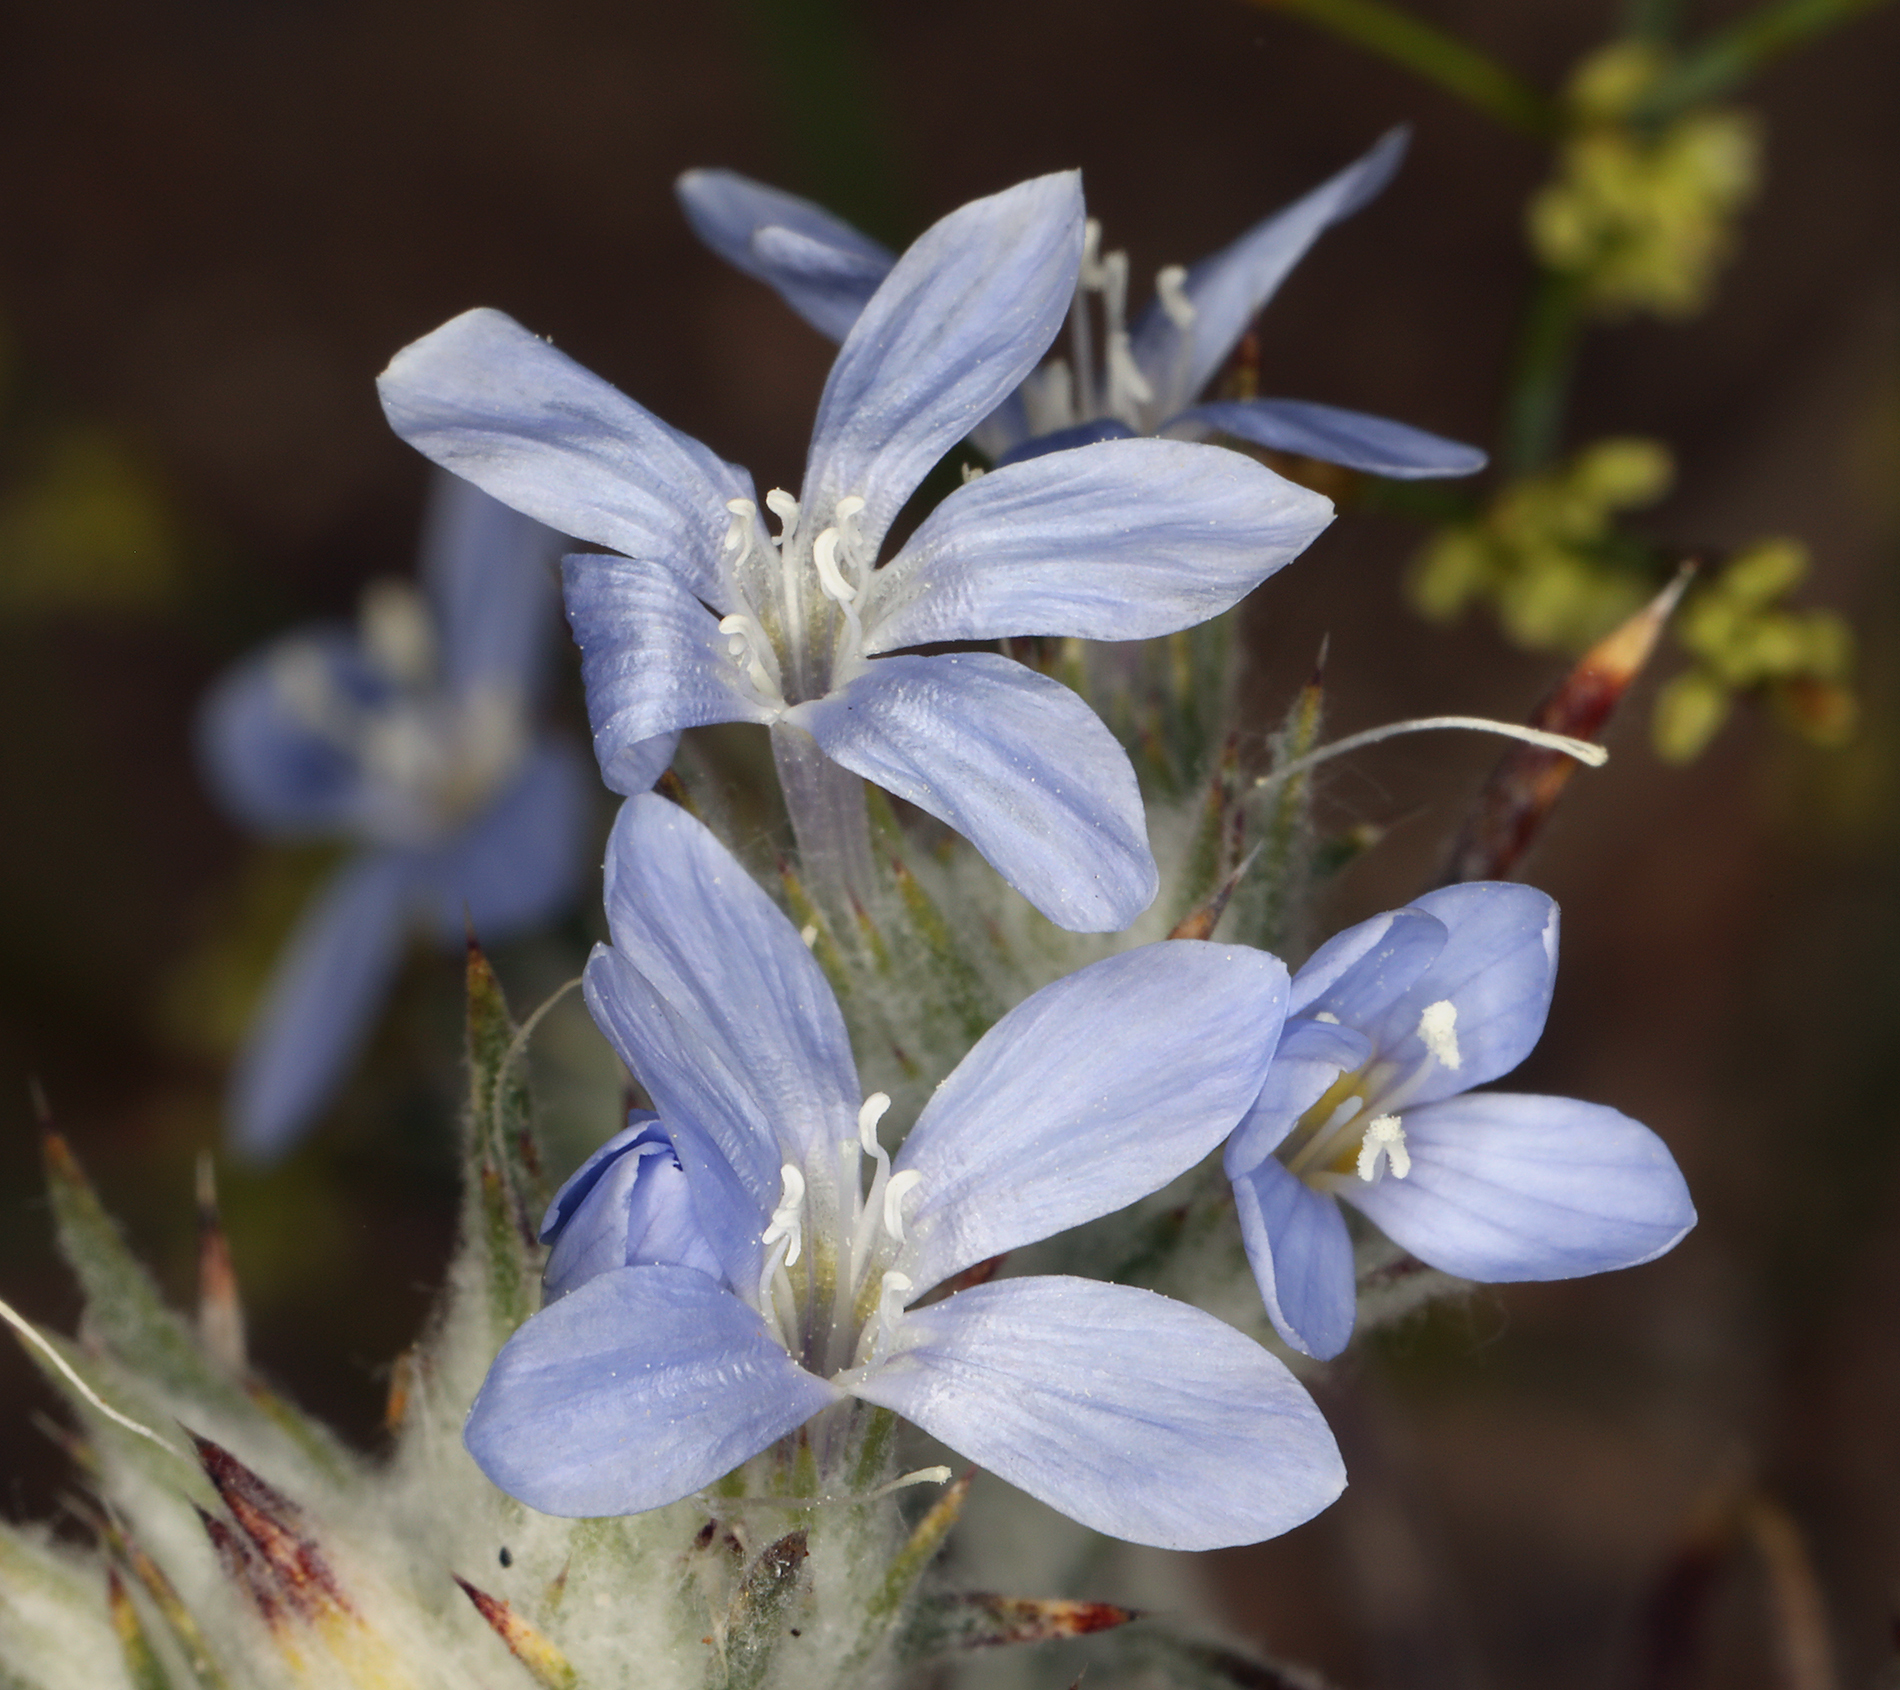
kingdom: Plantae
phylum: Tracheophyta
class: Magnoliopsida
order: Ericales
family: Polemoniaceae
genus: Eriastrum
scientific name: Eriastrum wilcoxii
